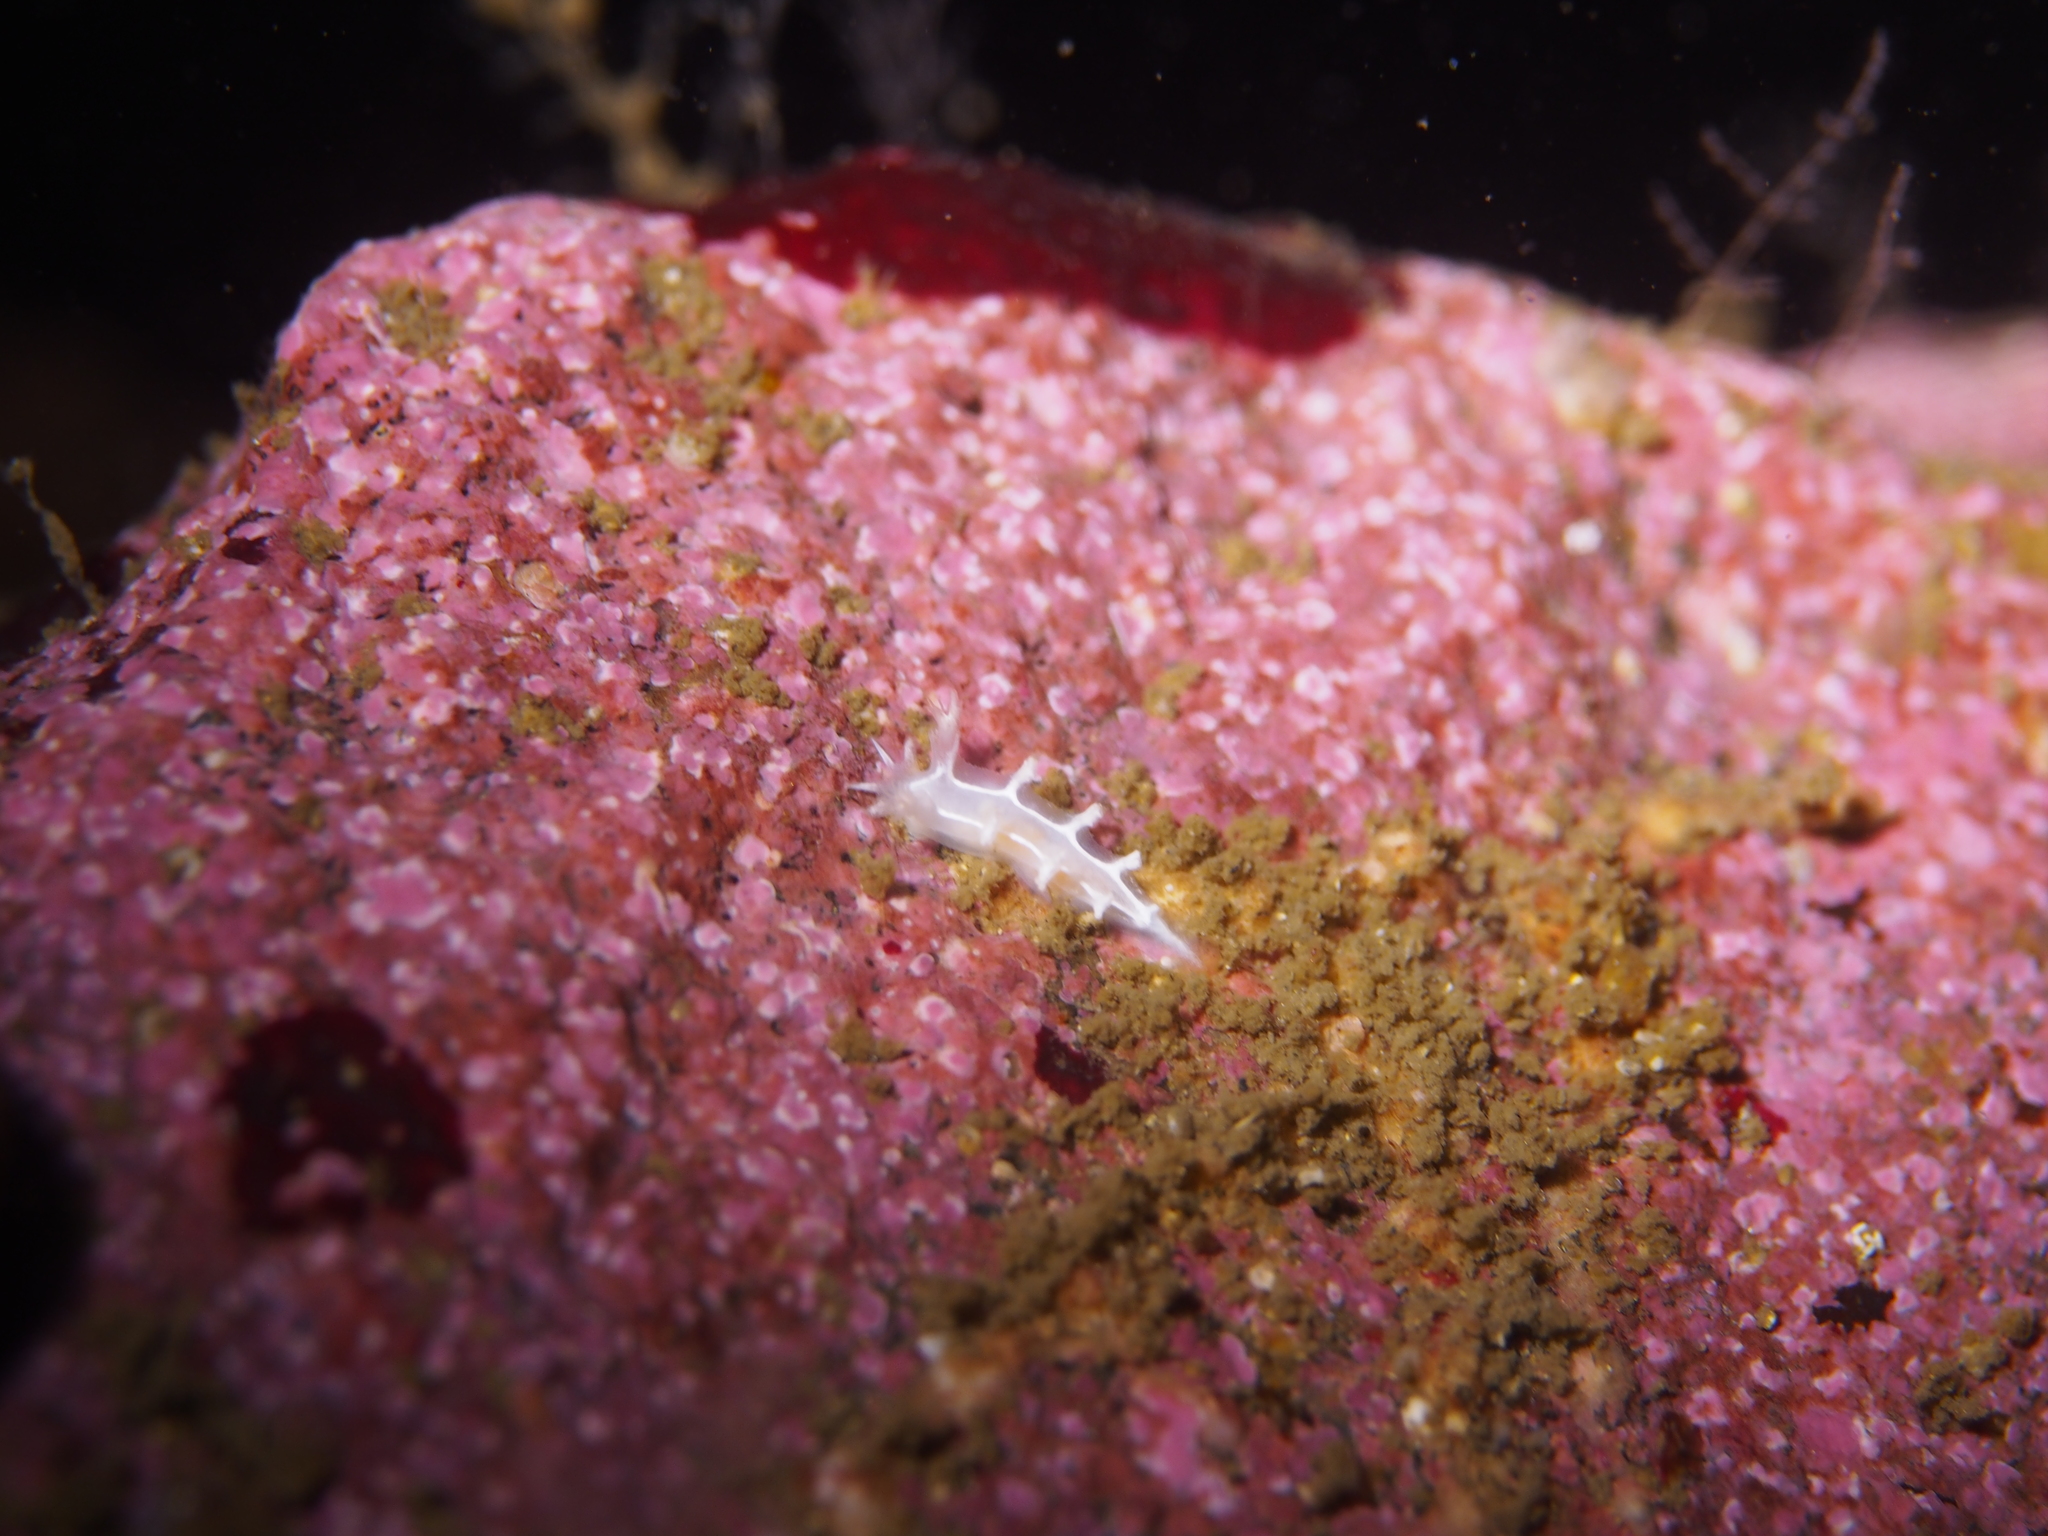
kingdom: Animalia
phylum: Mollusca
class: Gastropoda
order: Nudibranchia
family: Tritoniidae
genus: Duvaucelia
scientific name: Duvaucelia lineata
